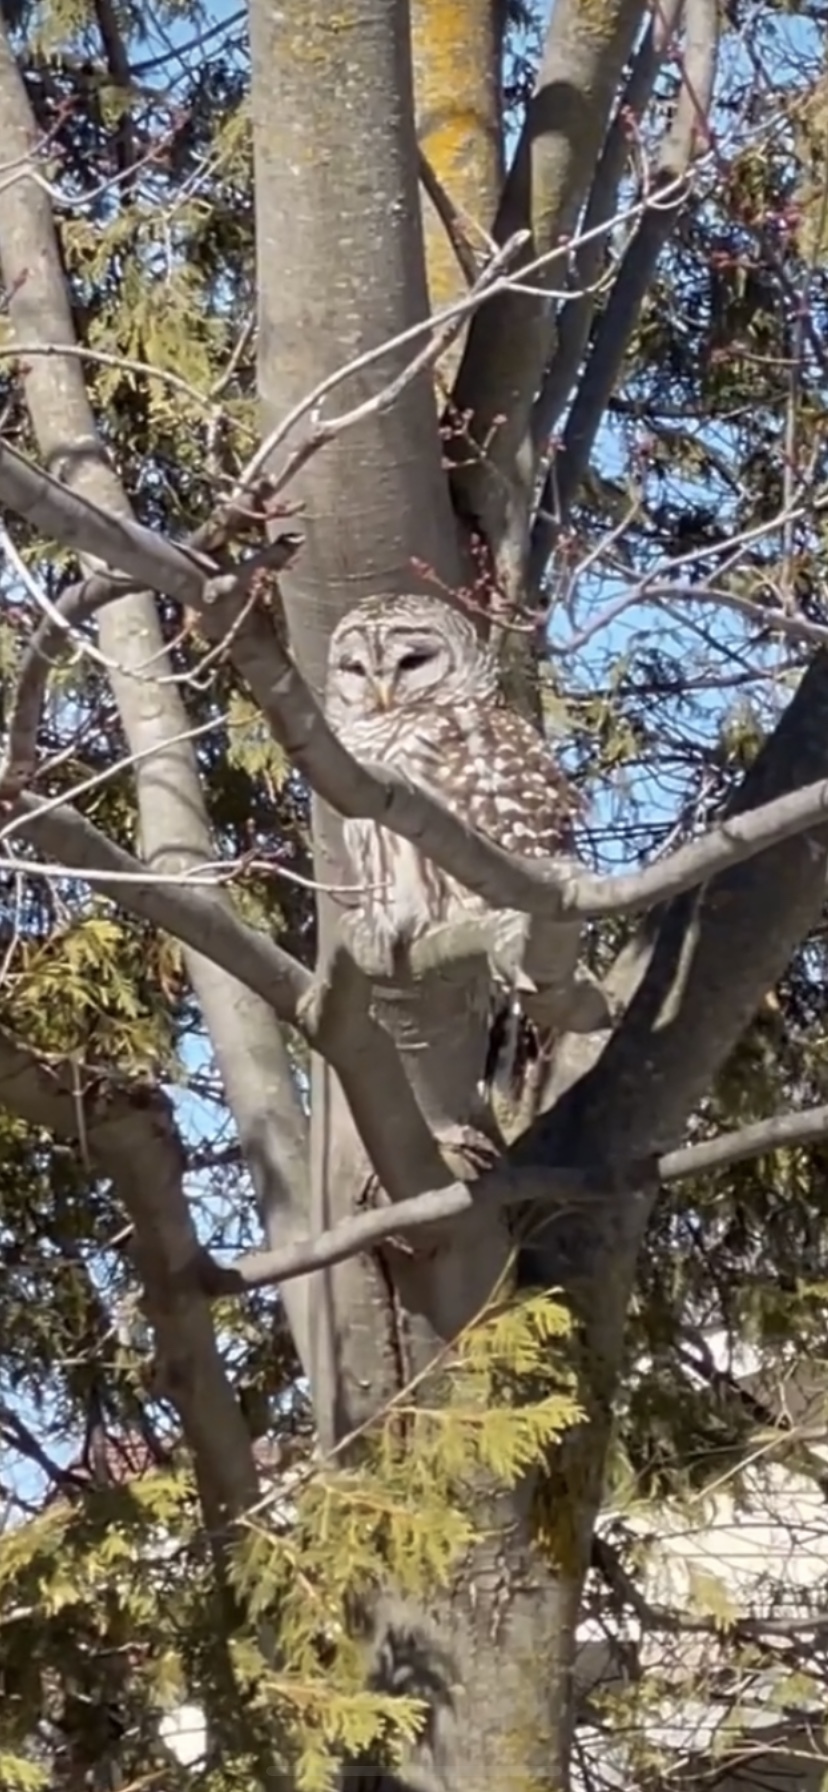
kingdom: Animalia
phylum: Chordata
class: Aves
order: Strigiformes
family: Strigidae
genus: Strix
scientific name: Strix varia
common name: Barred owl
